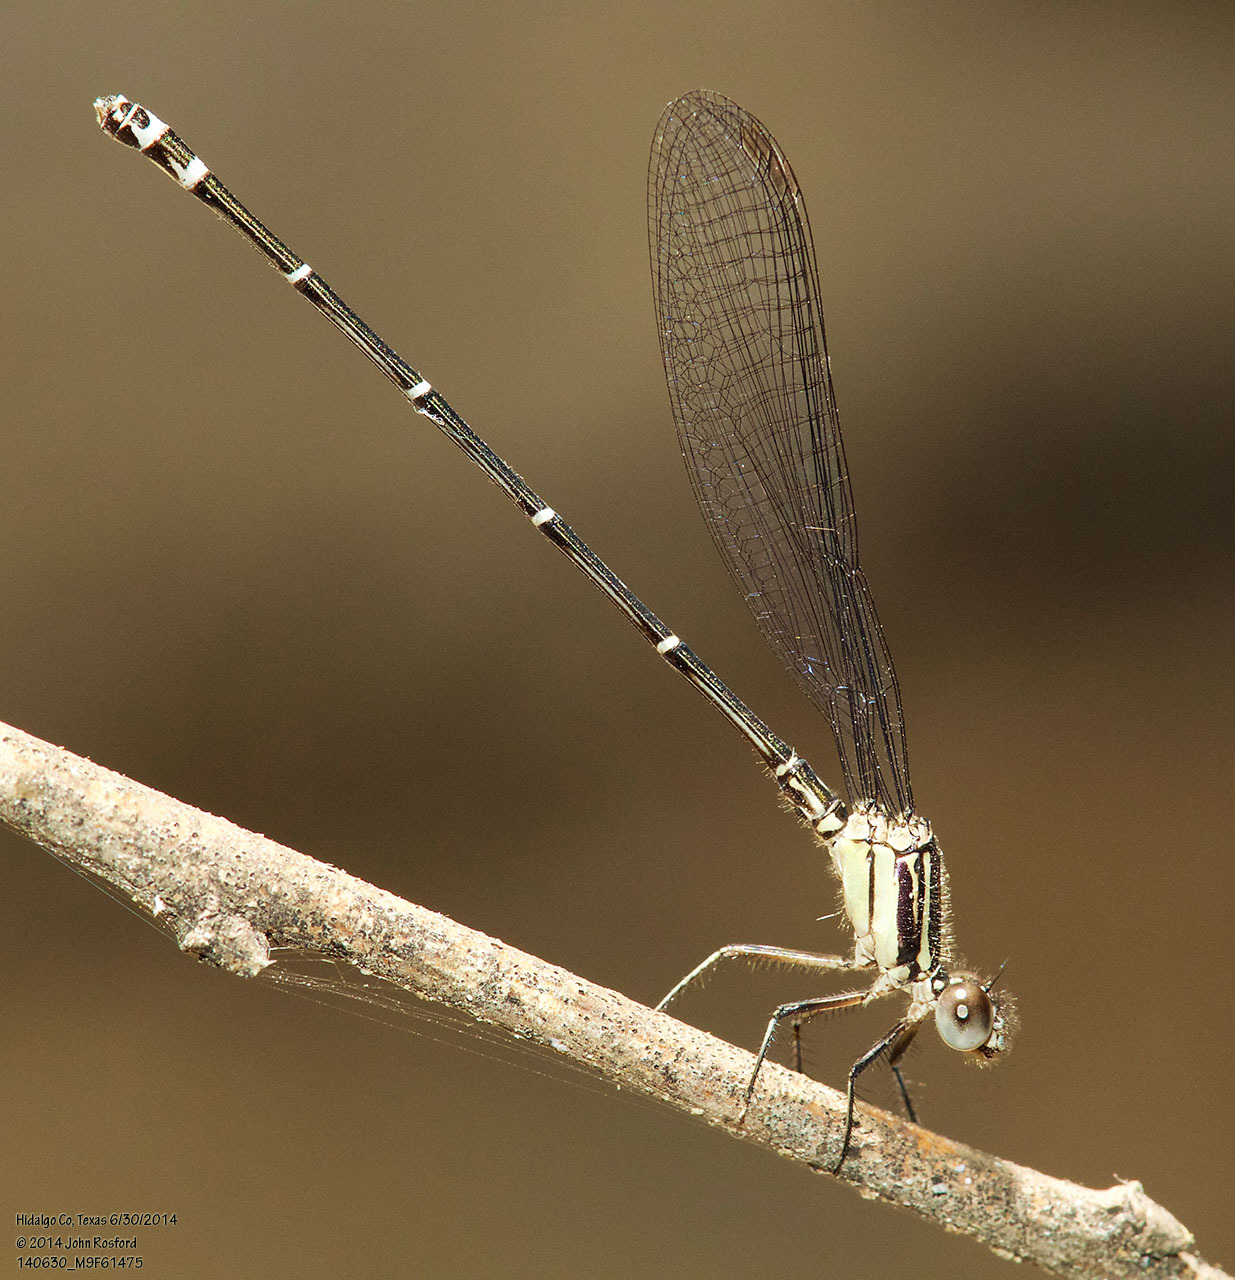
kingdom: Animalia
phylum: Arthropoda
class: Insecta
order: Odonata
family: Coenagrionidae
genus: Argia
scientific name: Argia translata
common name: Dusky dancer
